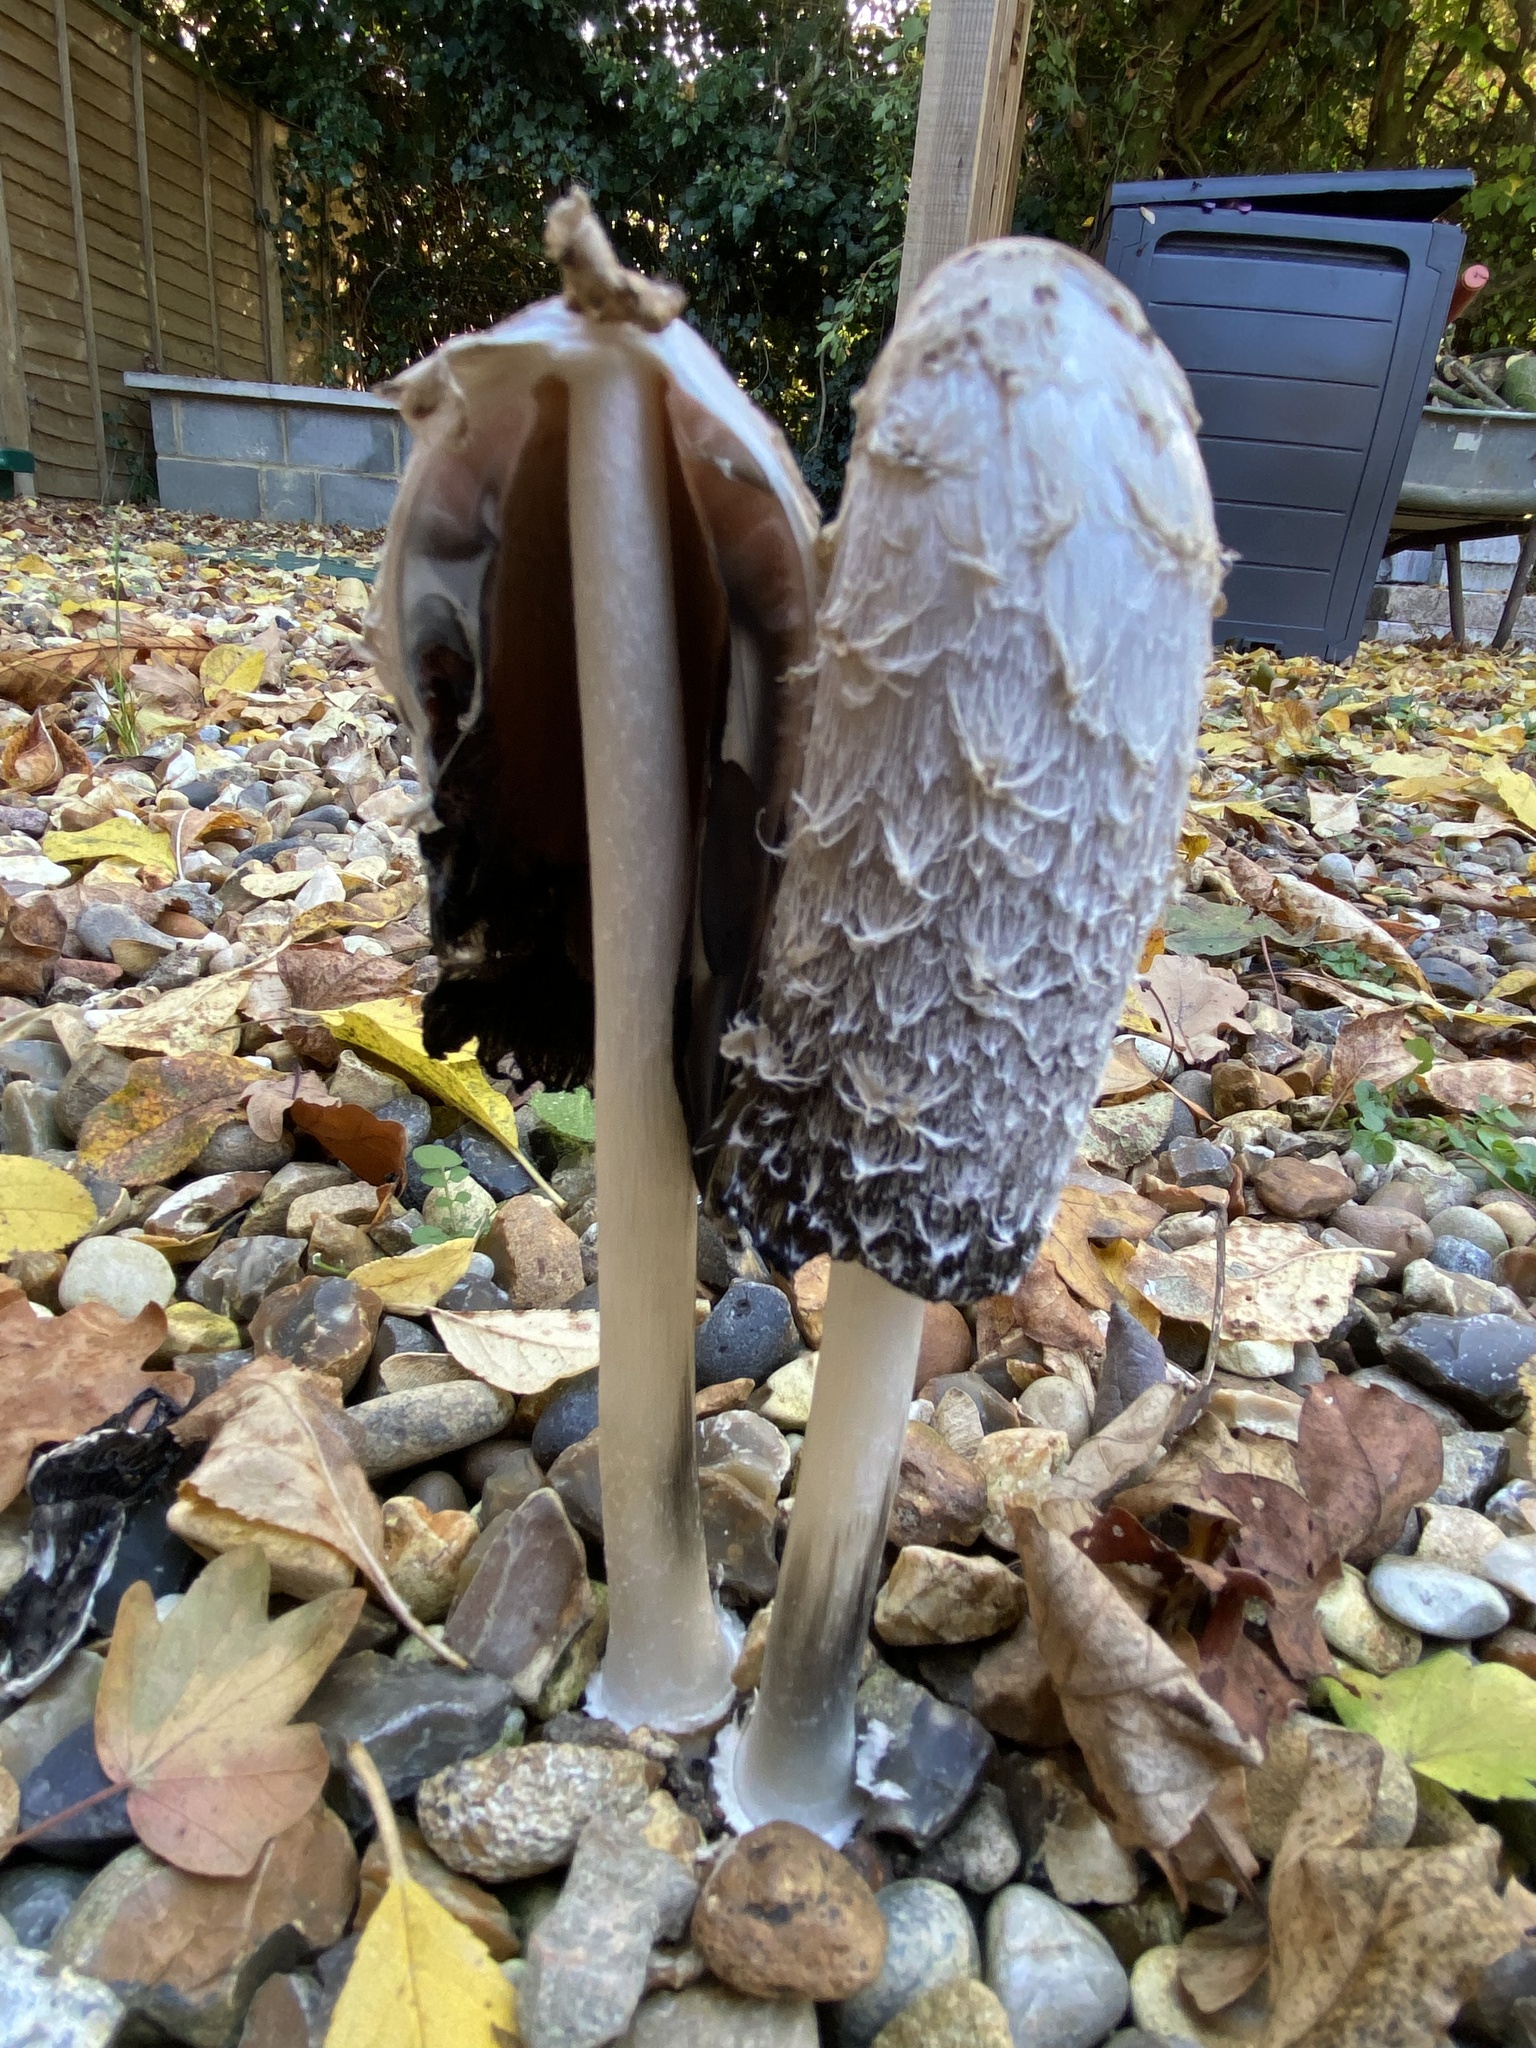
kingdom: Fungi
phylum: Basidiomycota
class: Agaricomycetes
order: Agaricales
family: Agaricaceae
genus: Coprinus
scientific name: Coprinus comatus
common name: Lawyer's wig
